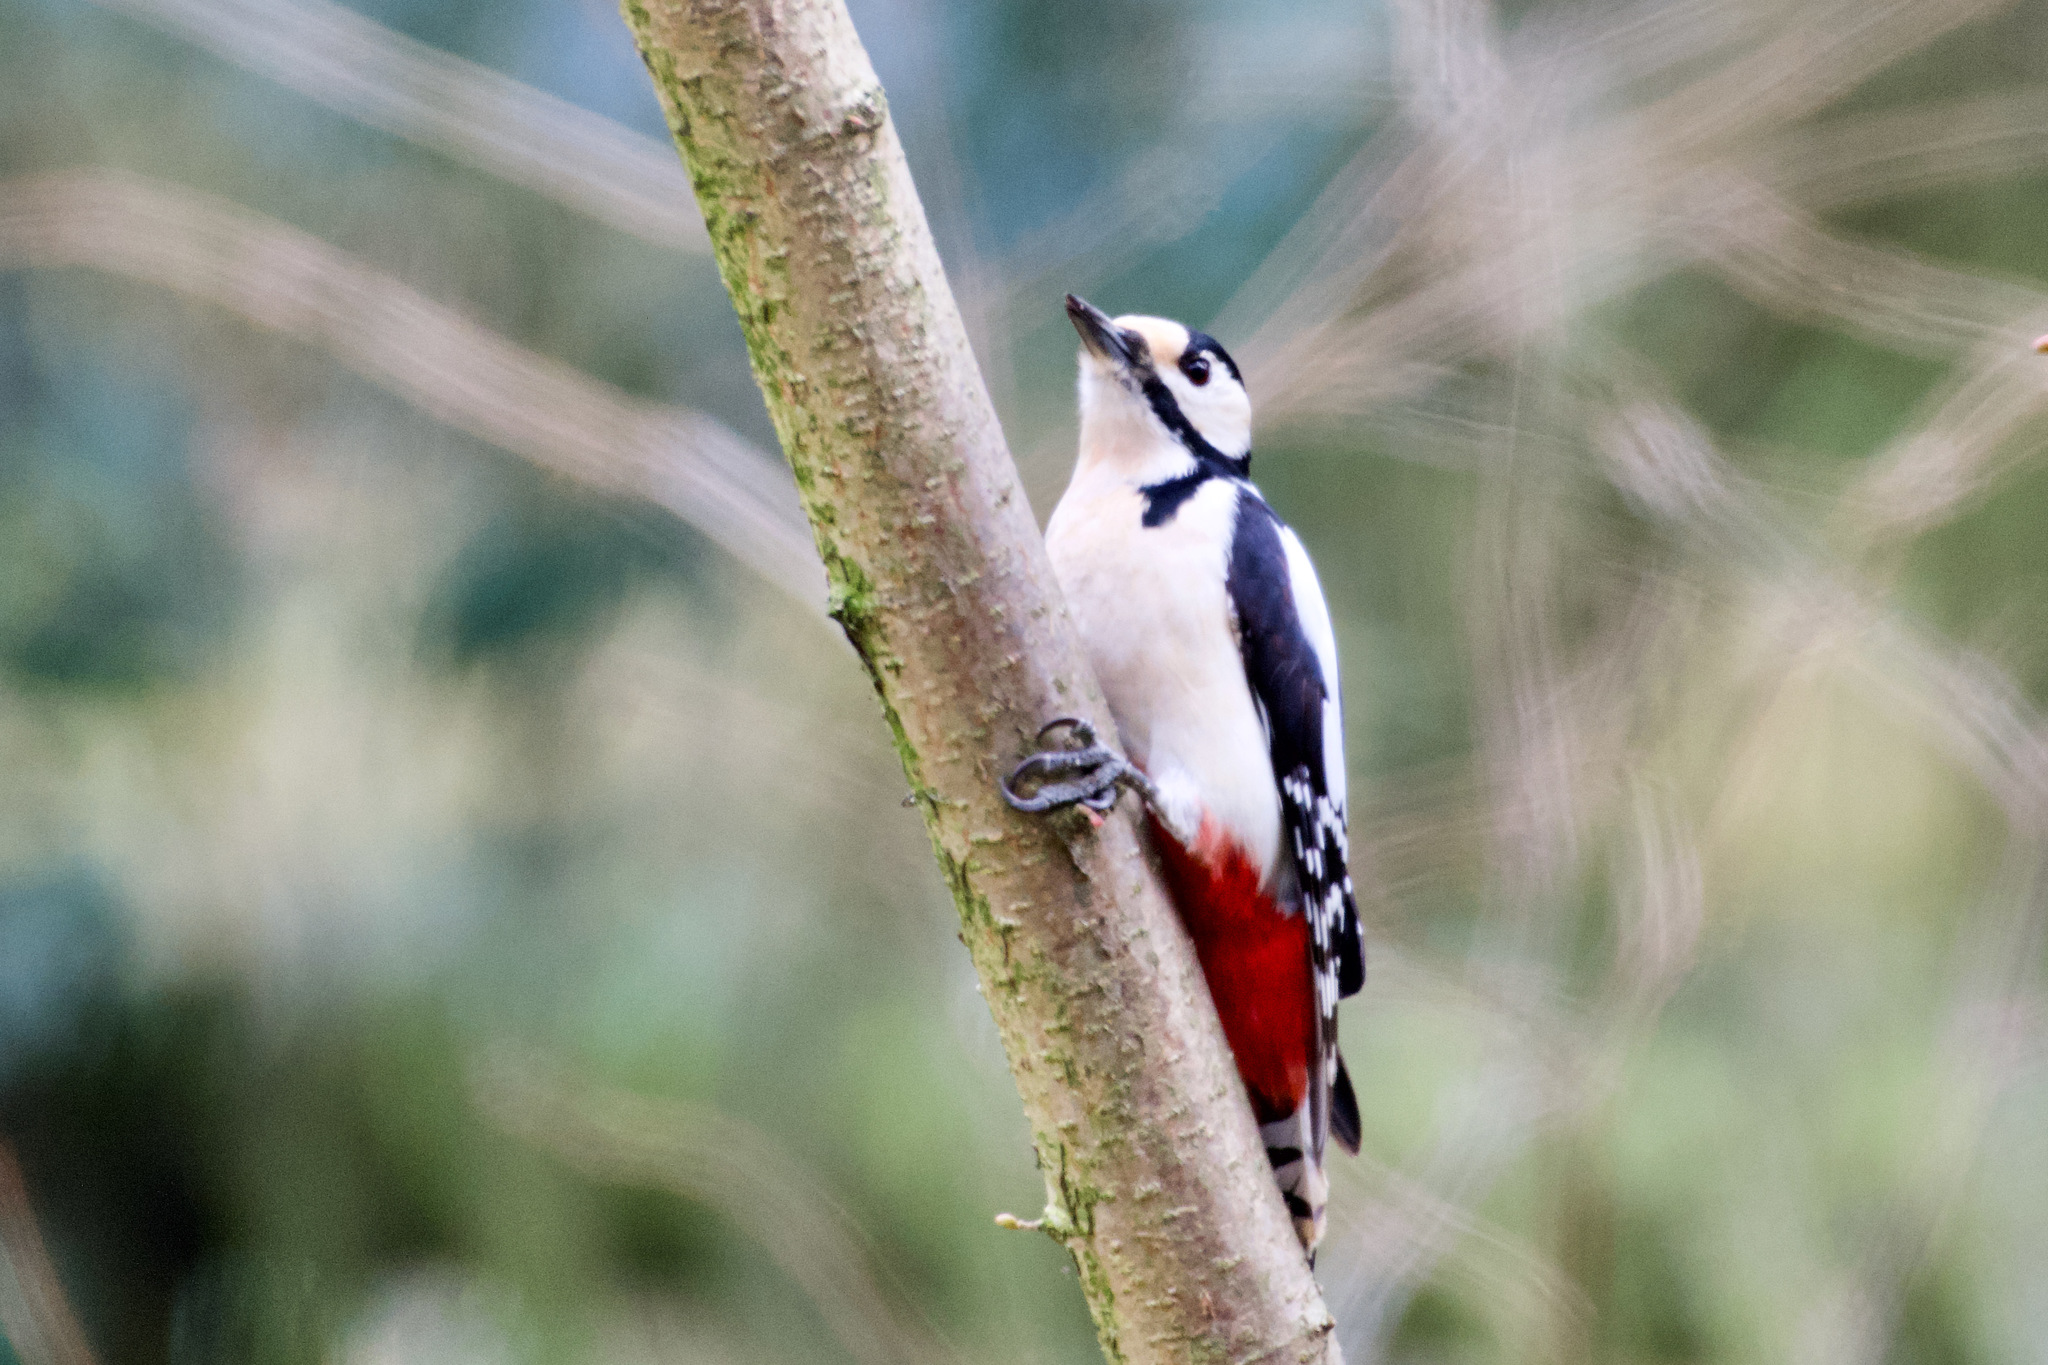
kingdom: Animalia
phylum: Chordata
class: Aves
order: Piciformes
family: Picidae
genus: Dendrocopos
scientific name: Dendrocopos major
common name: Great spotted woodpecker
